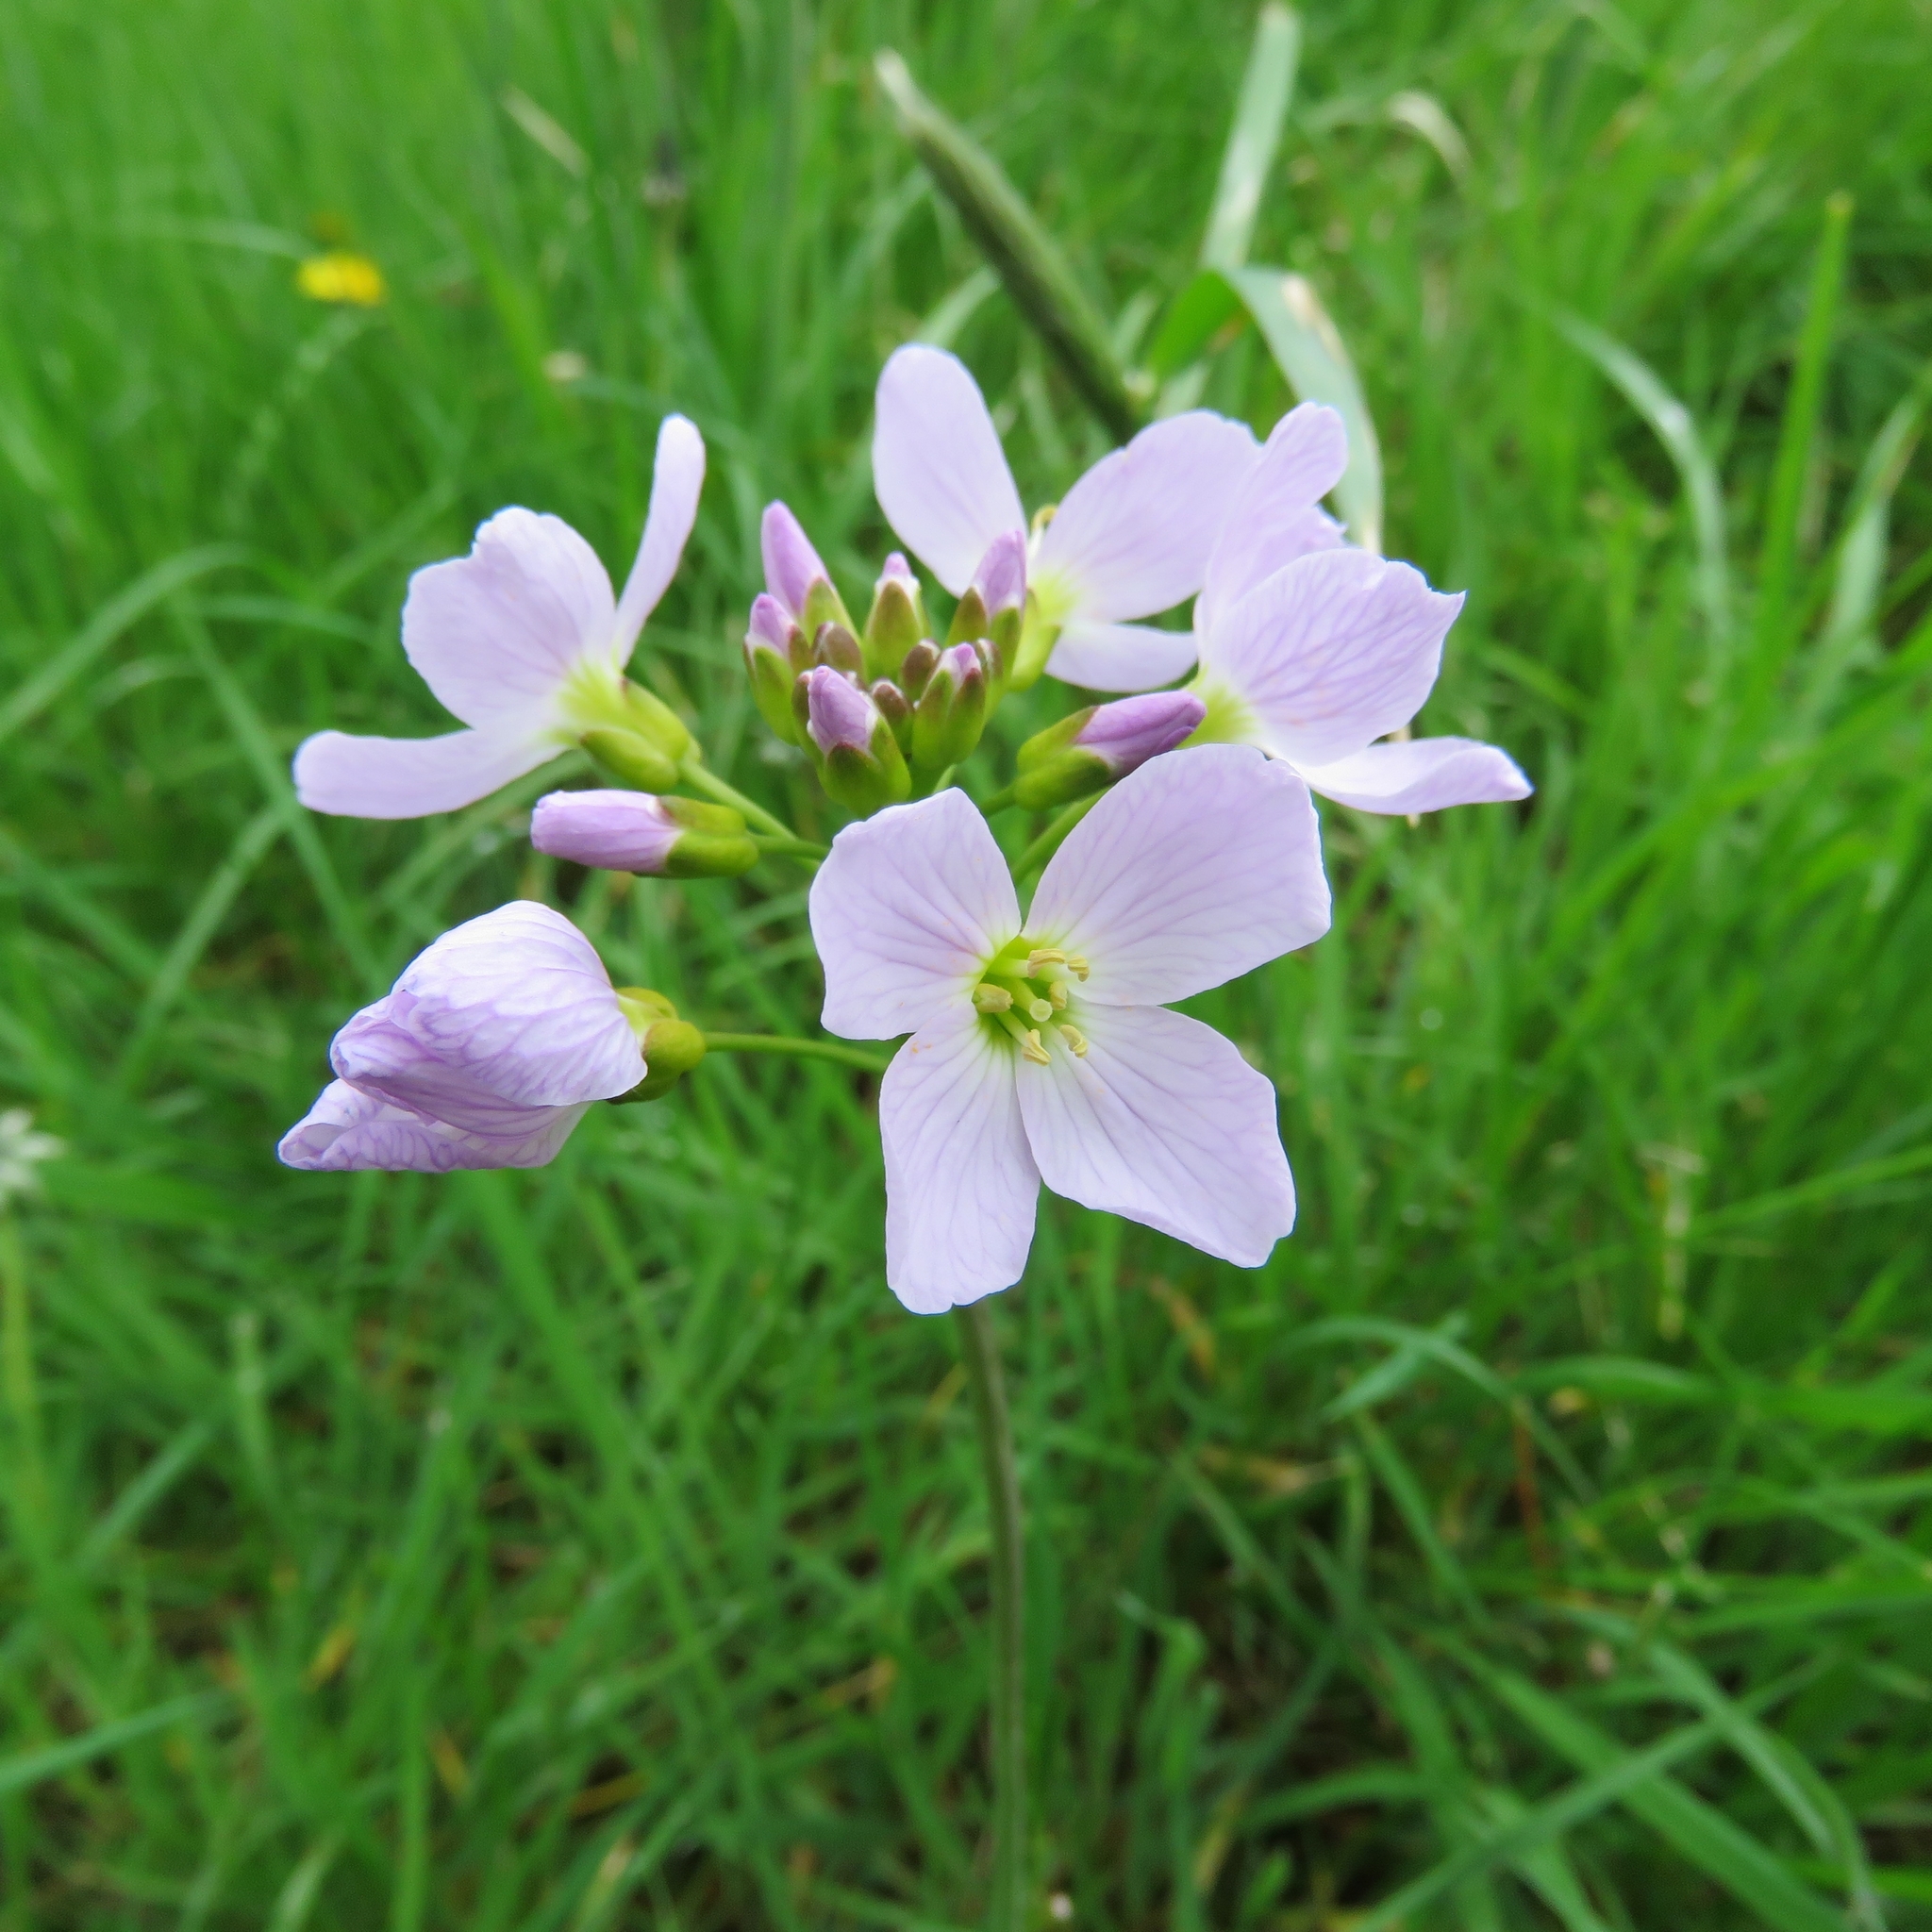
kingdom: Plantae
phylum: Tracheophyta
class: Magnoliopsida
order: Brassicales
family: Brassicaceae
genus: Cardamine
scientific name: Cardamine pratensis
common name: Cuckoo flower
